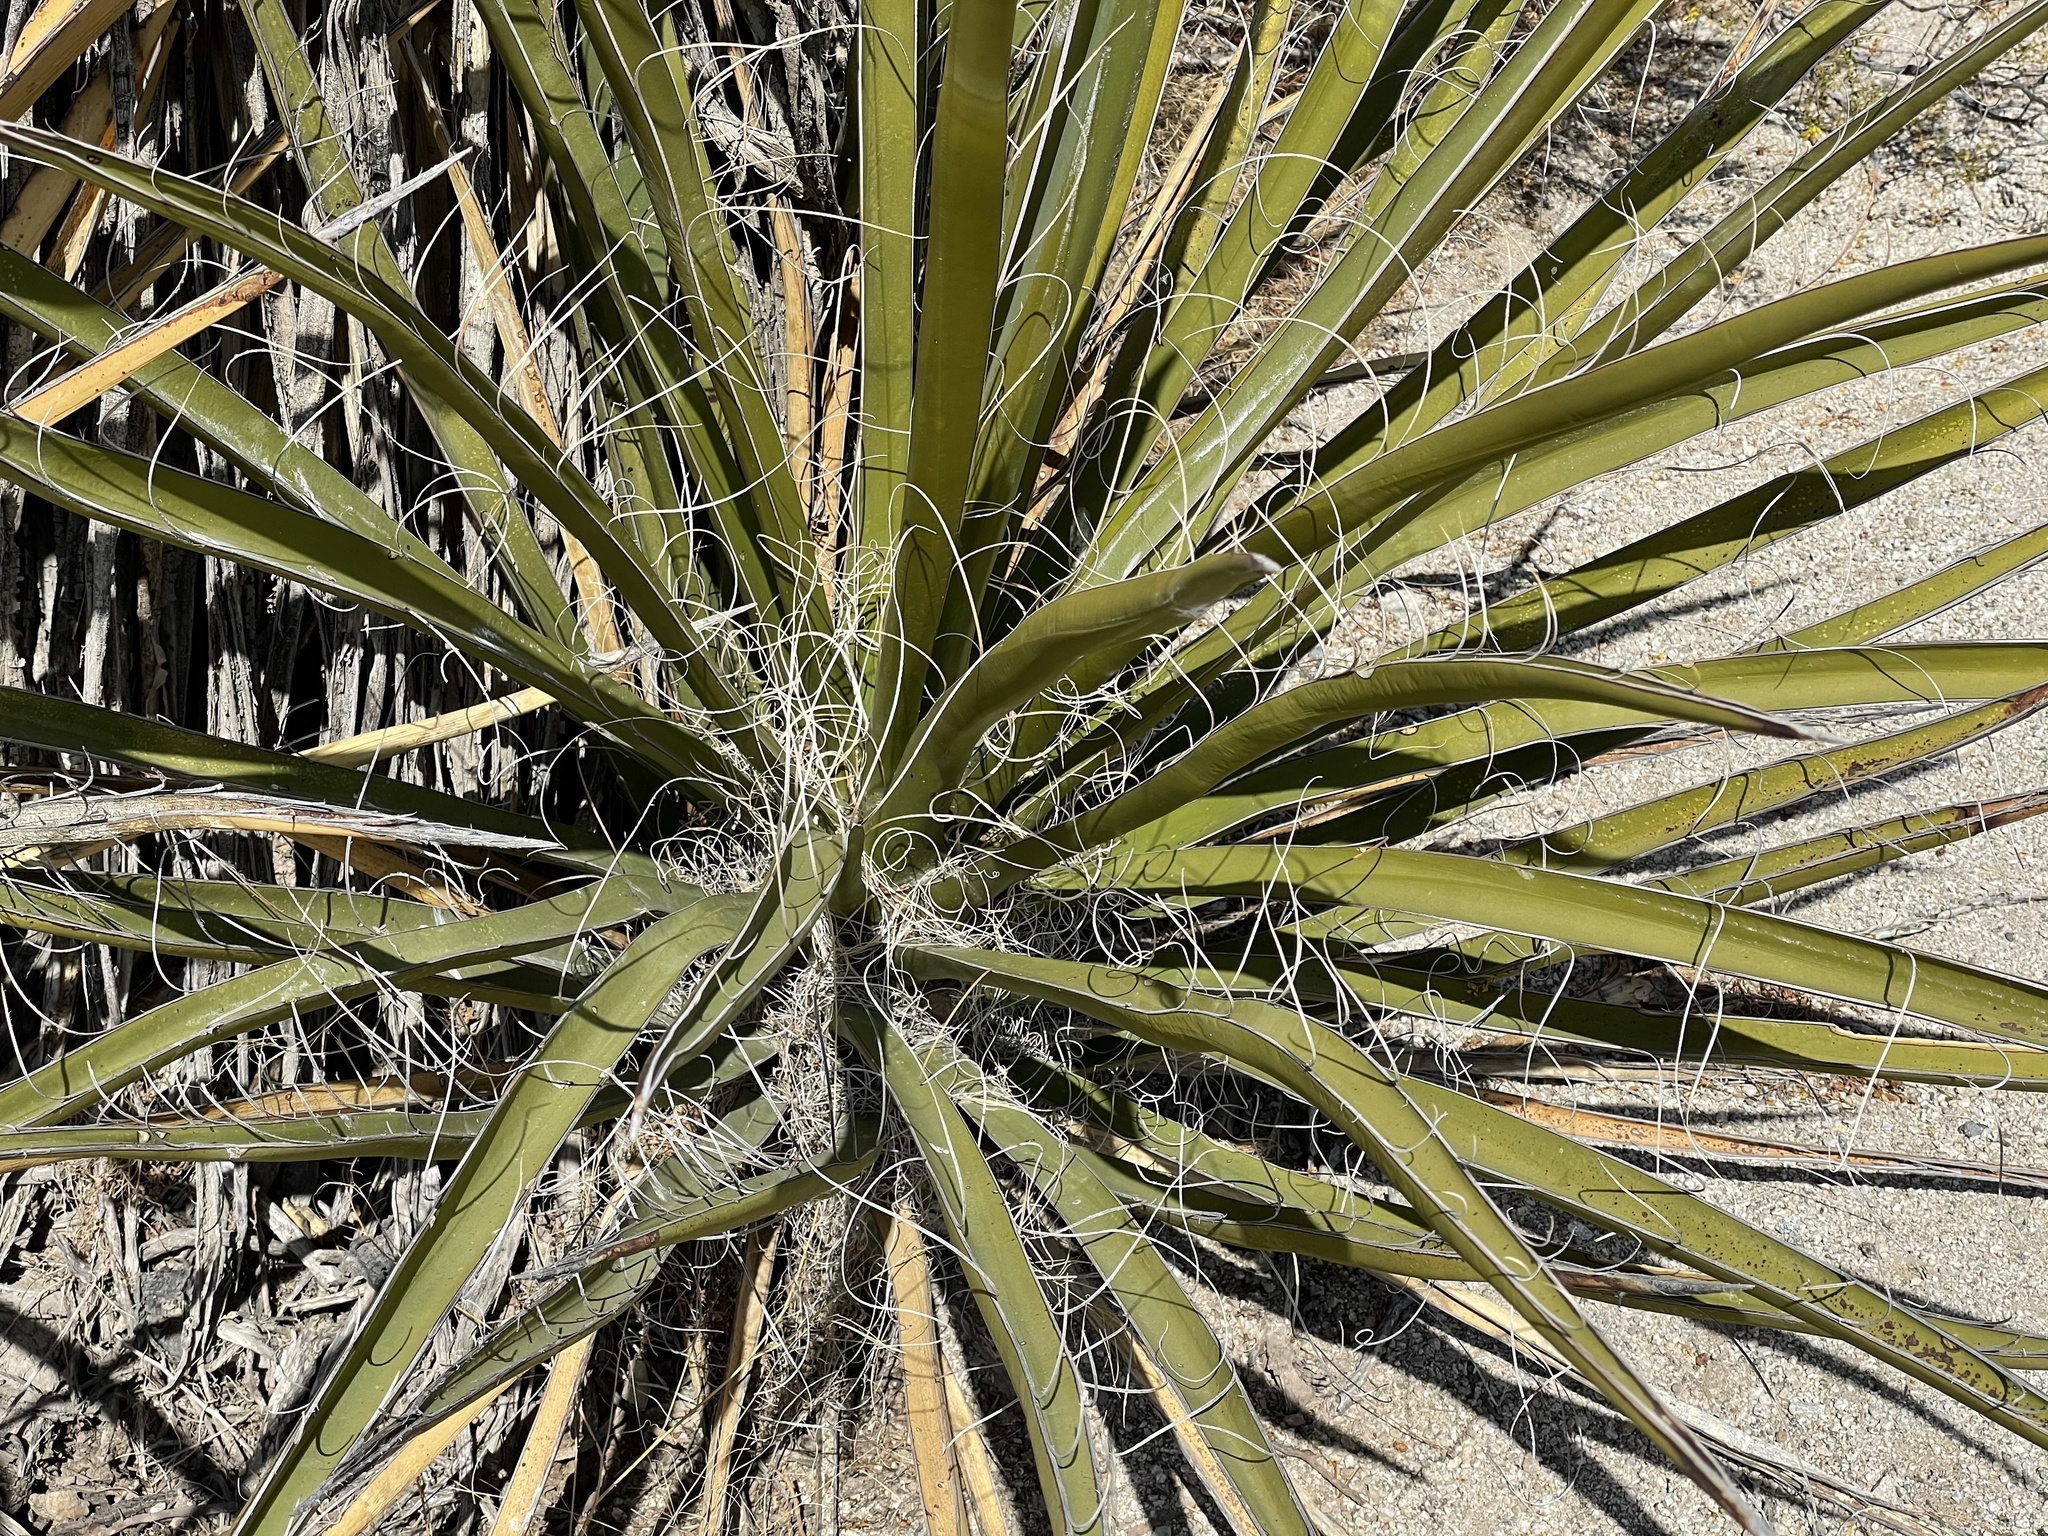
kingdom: Plantae
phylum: Tracheophyta
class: Liliopsida
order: Asparagales
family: Asparagaceae
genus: Yucca
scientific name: Yucca schidigera
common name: Mojave yucca
